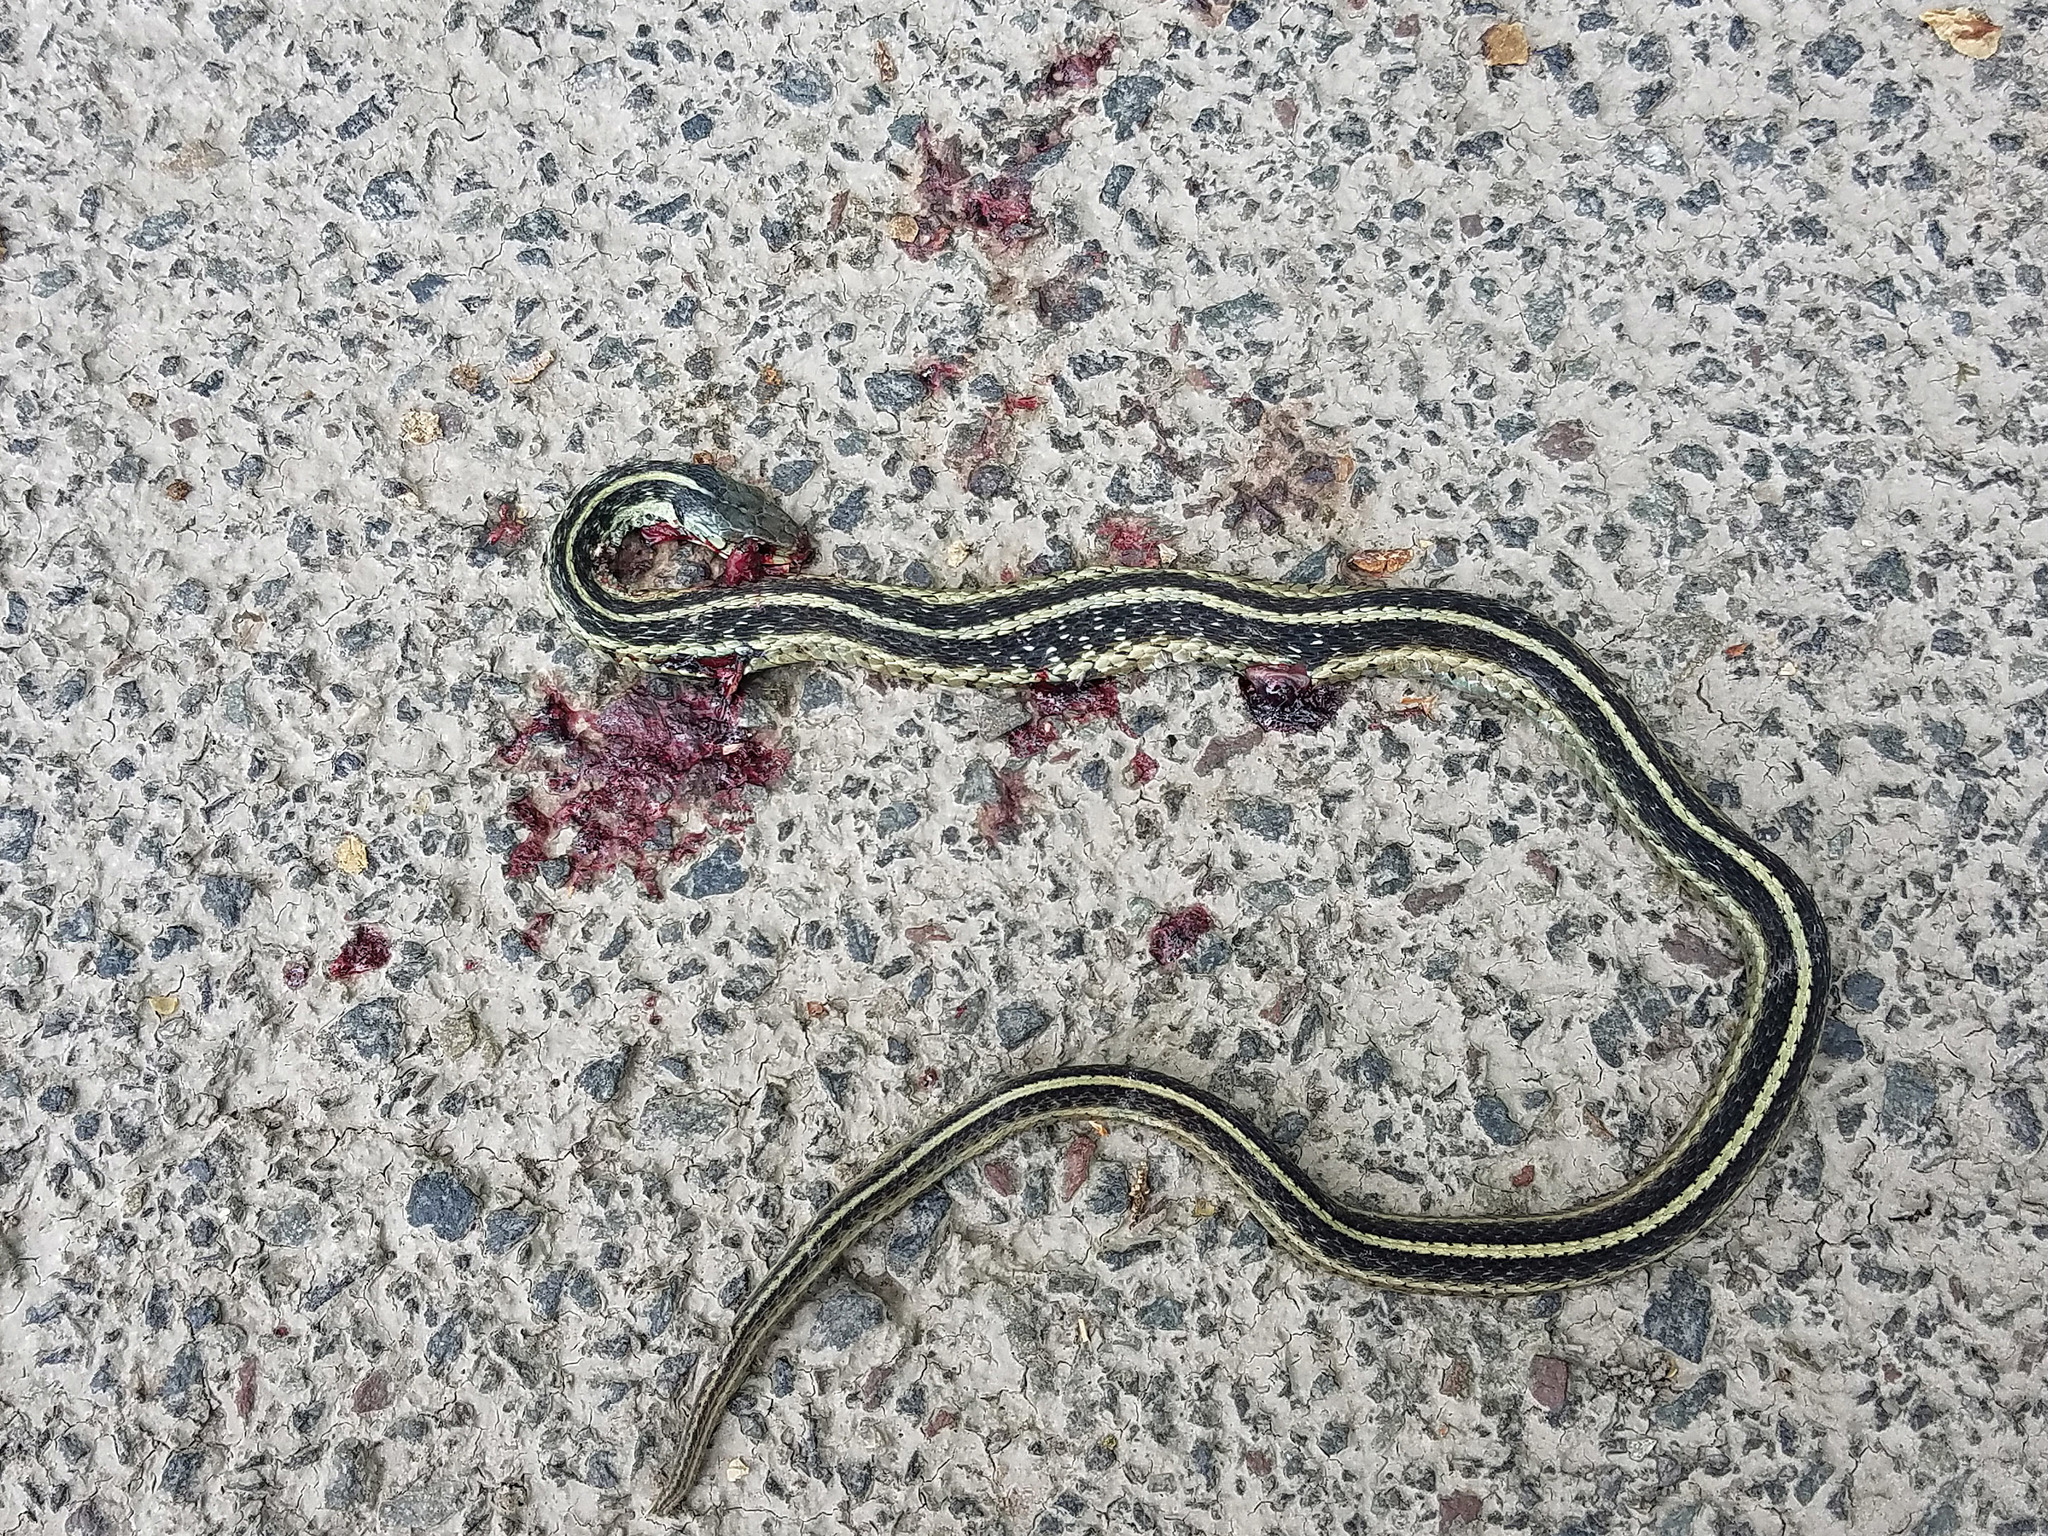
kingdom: Animalia
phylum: Chordata
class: Squamata
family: Colubridae
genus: Thamnophis
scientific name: Thamnophis sirtalis
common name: Common garter snake
